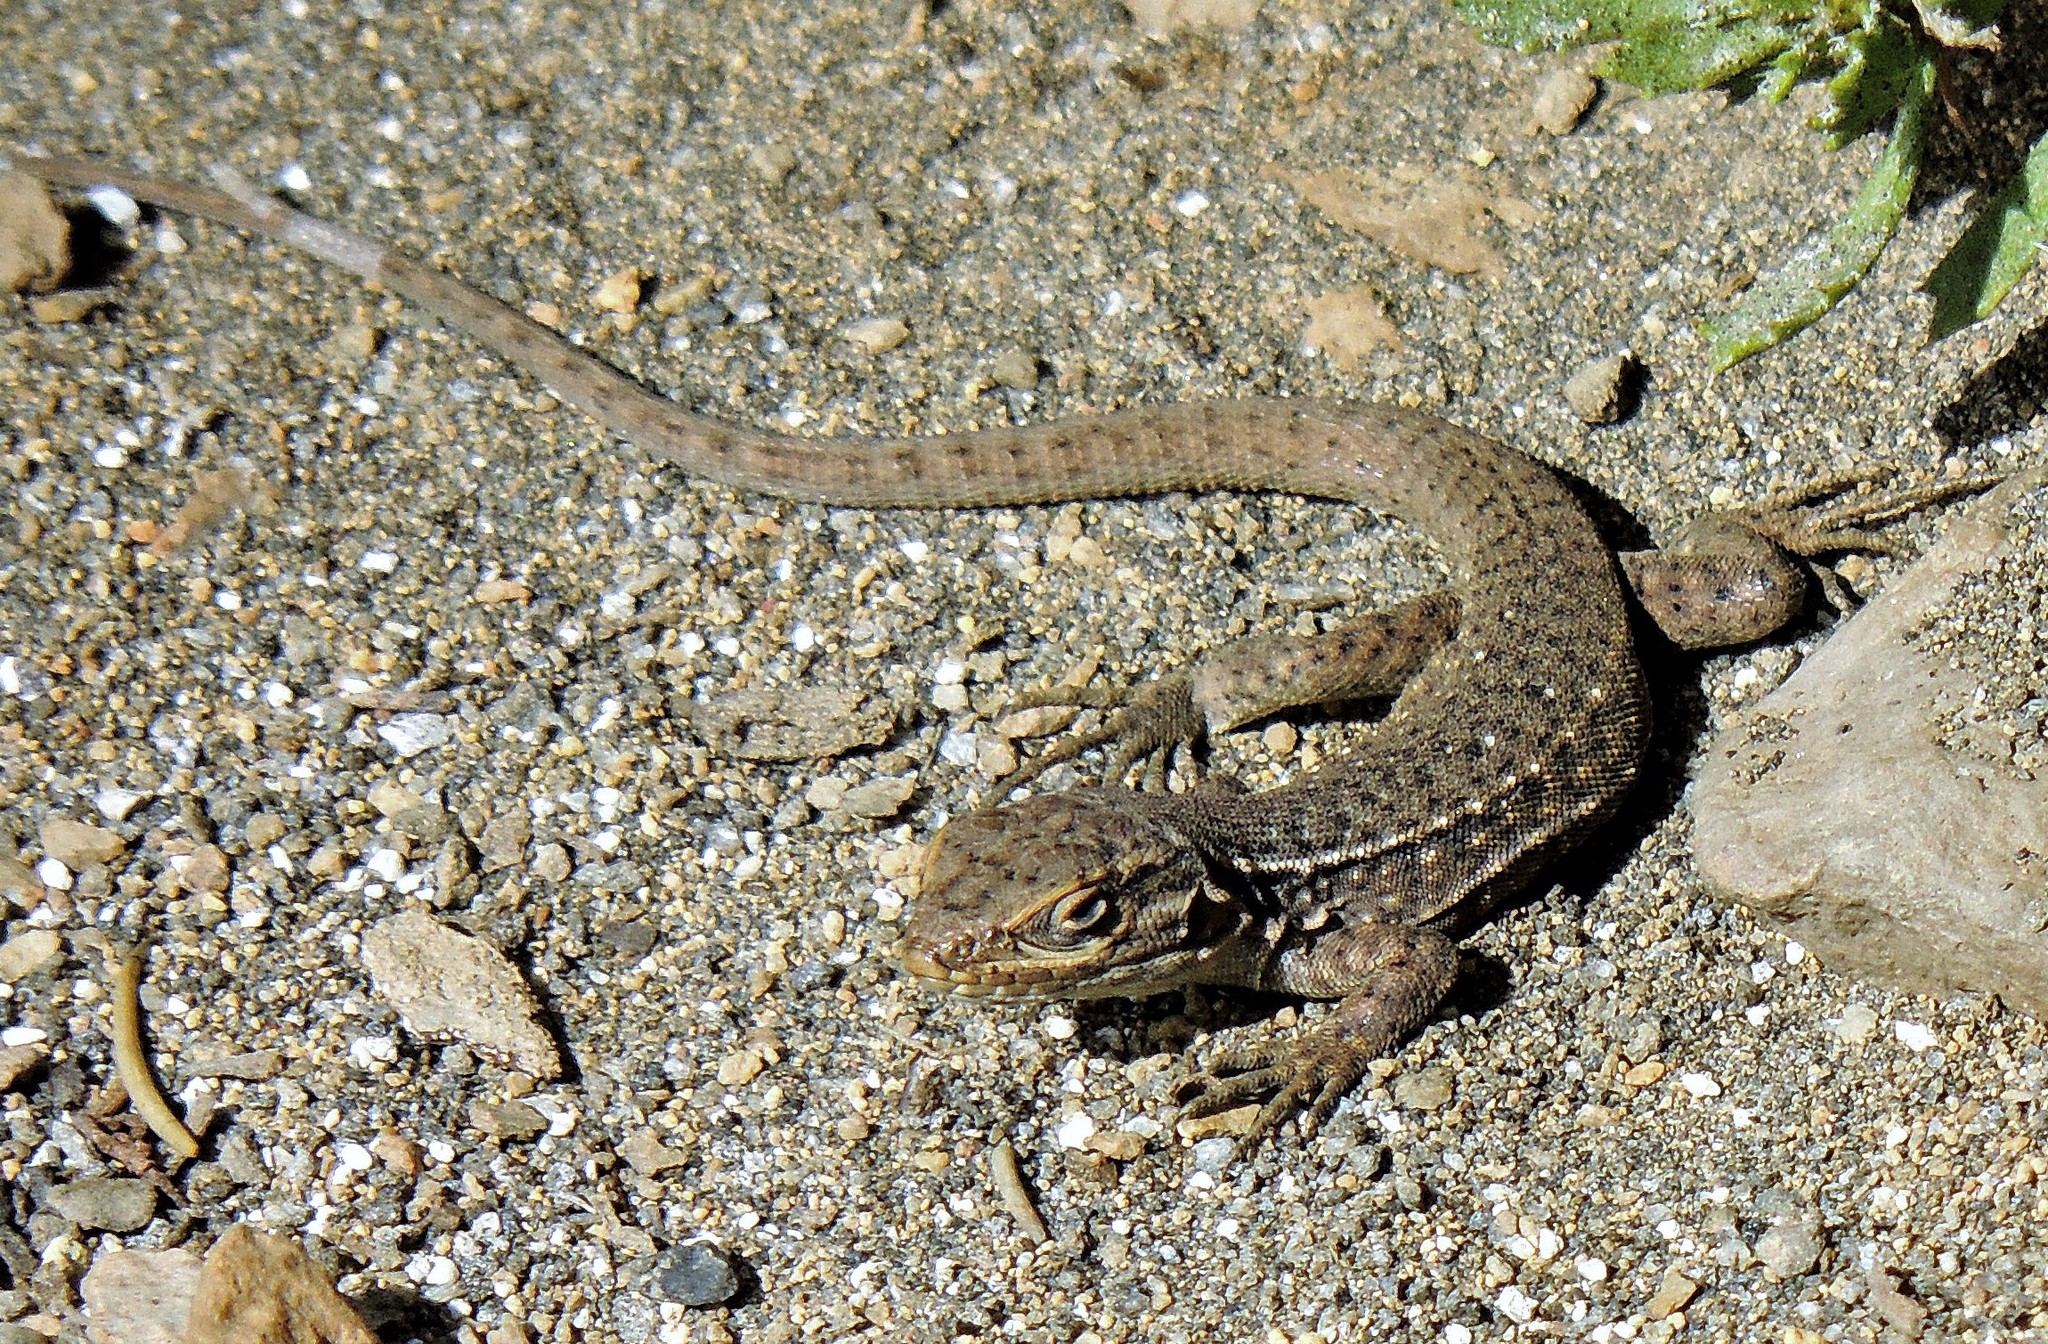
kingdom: Animalia
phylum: Chordata
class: Squamata
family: Liolaemidae
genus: Liolaemus
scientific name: Liolaemus neuquensis
